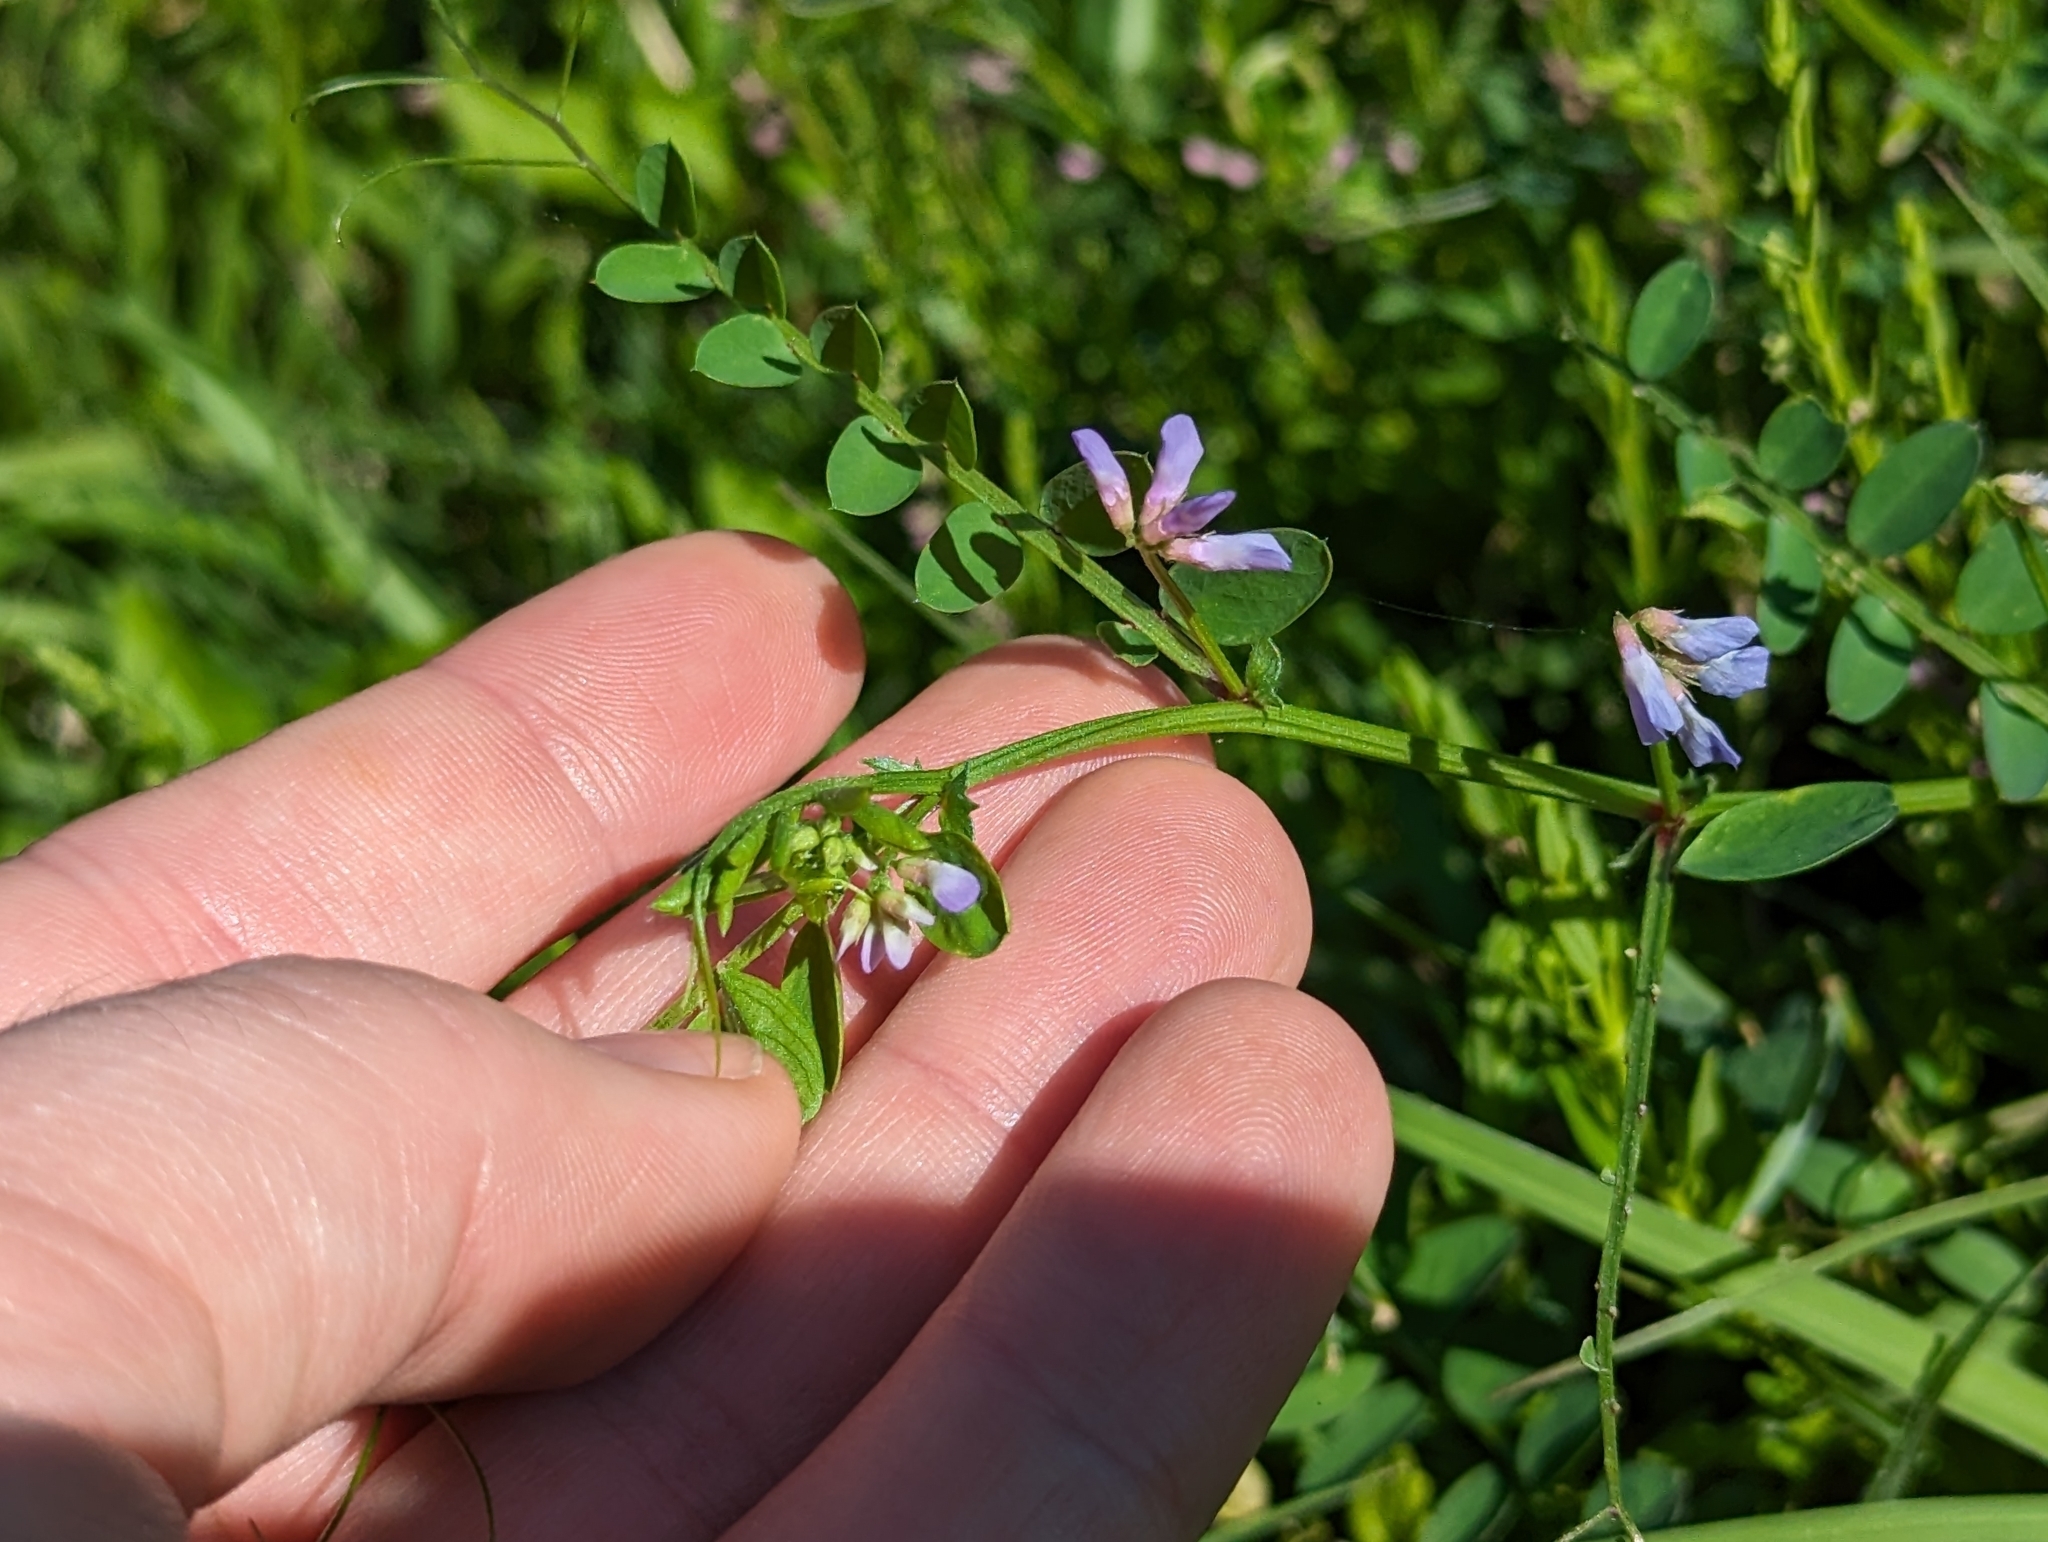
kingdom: Plantae
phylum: Tracheophyta
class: Magnoliopsida
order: Fabales
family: Fabaceae
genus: Vicia
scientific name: Vicia ludoviciana
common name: Louisiana vetch
